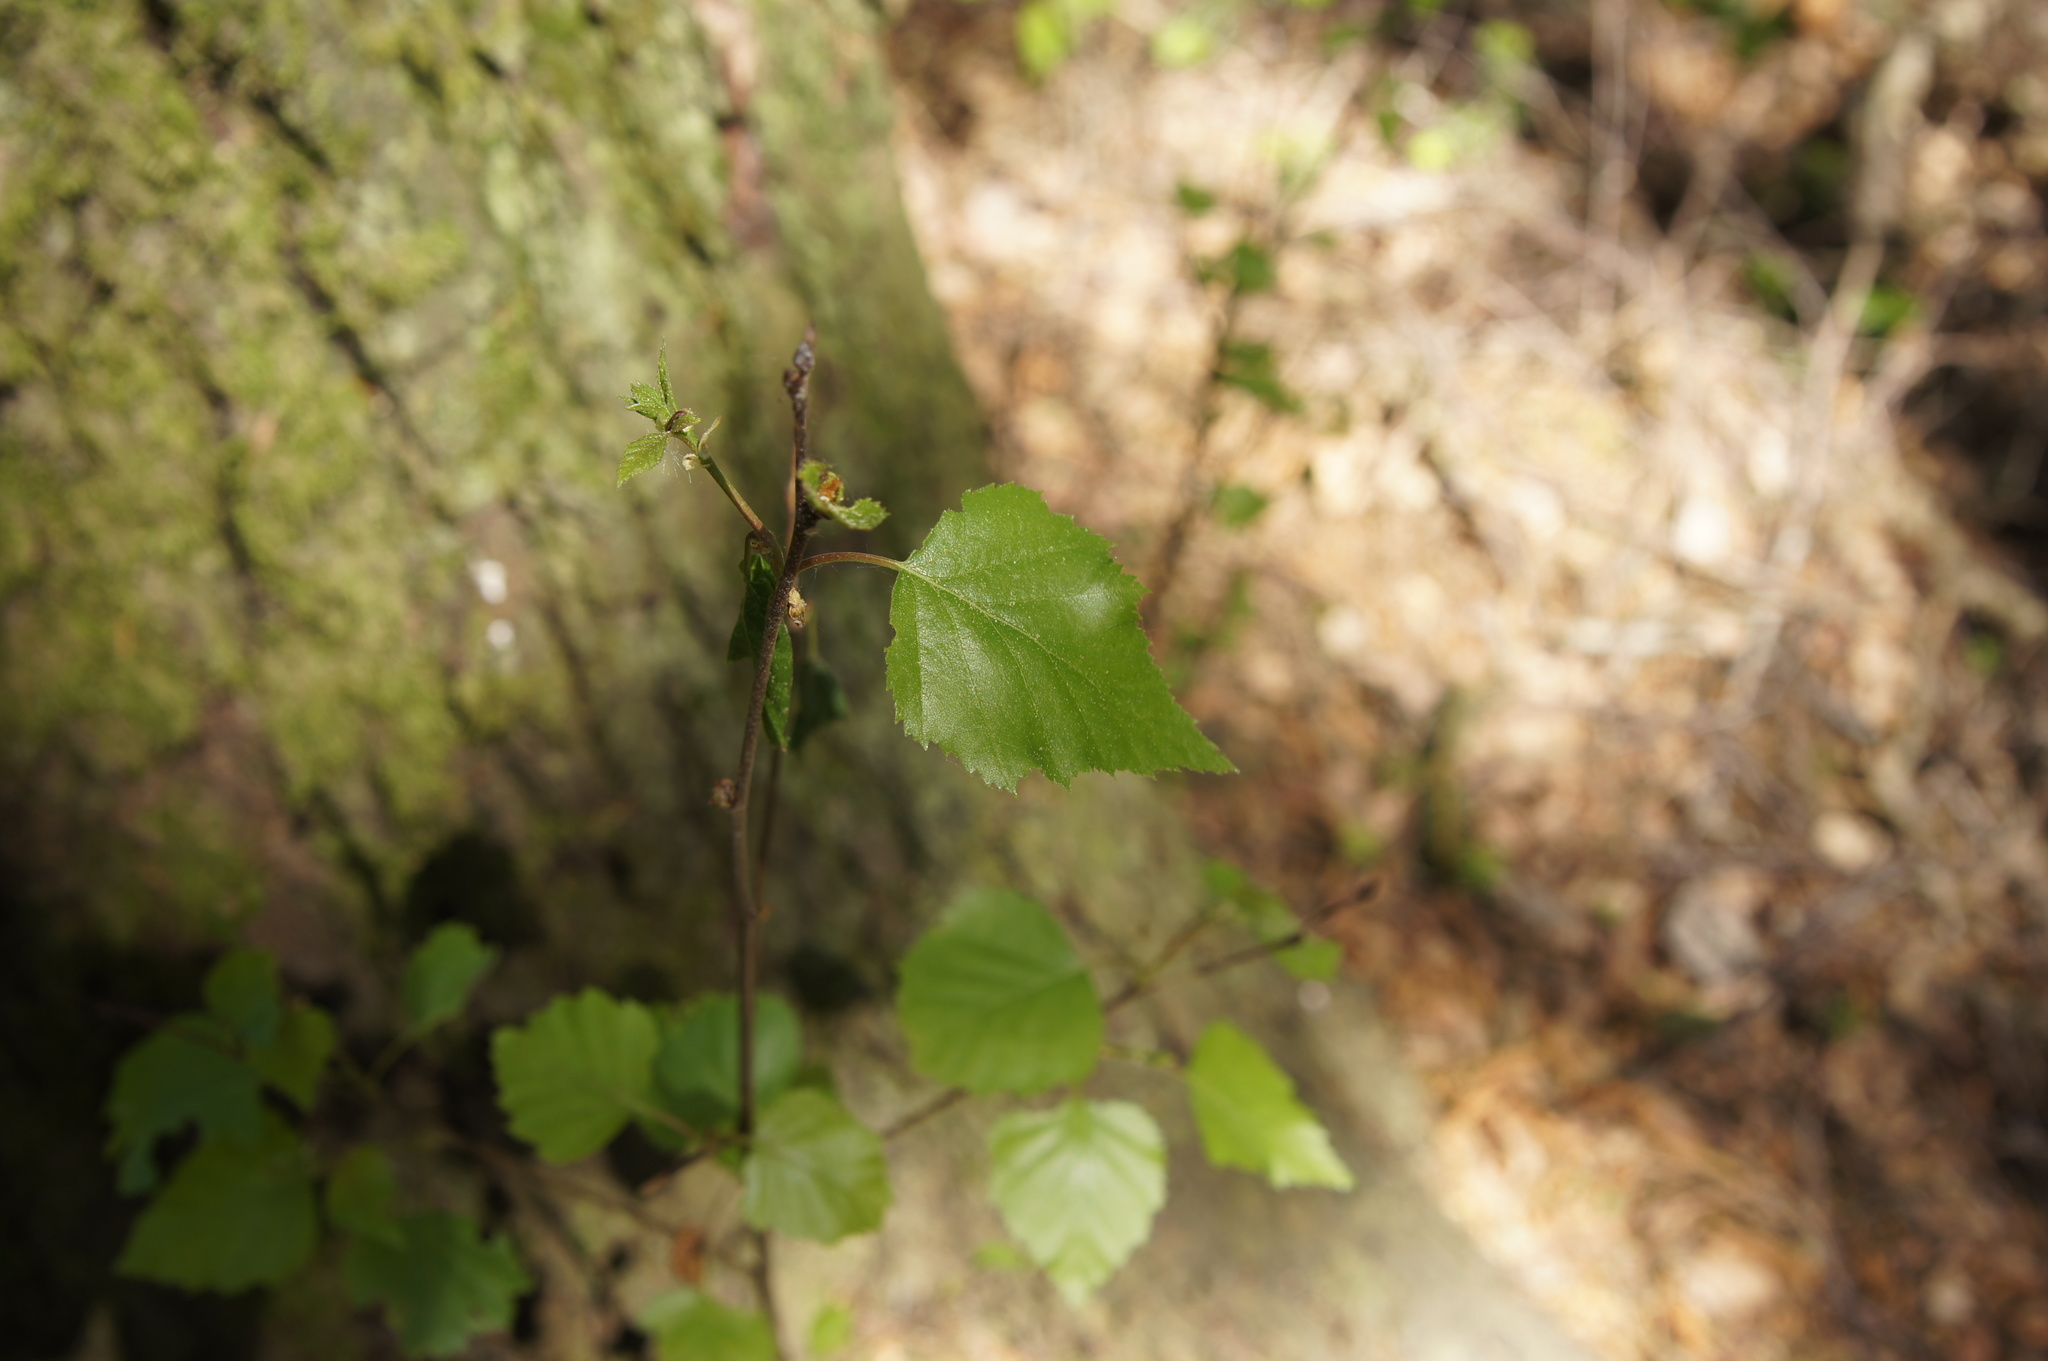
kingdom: Plantae
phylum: Tracheophyta
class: Magnoliopsida
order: Fagales
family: Betulaceae
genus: Betula
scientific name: Betula pendula
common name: Silver birch
